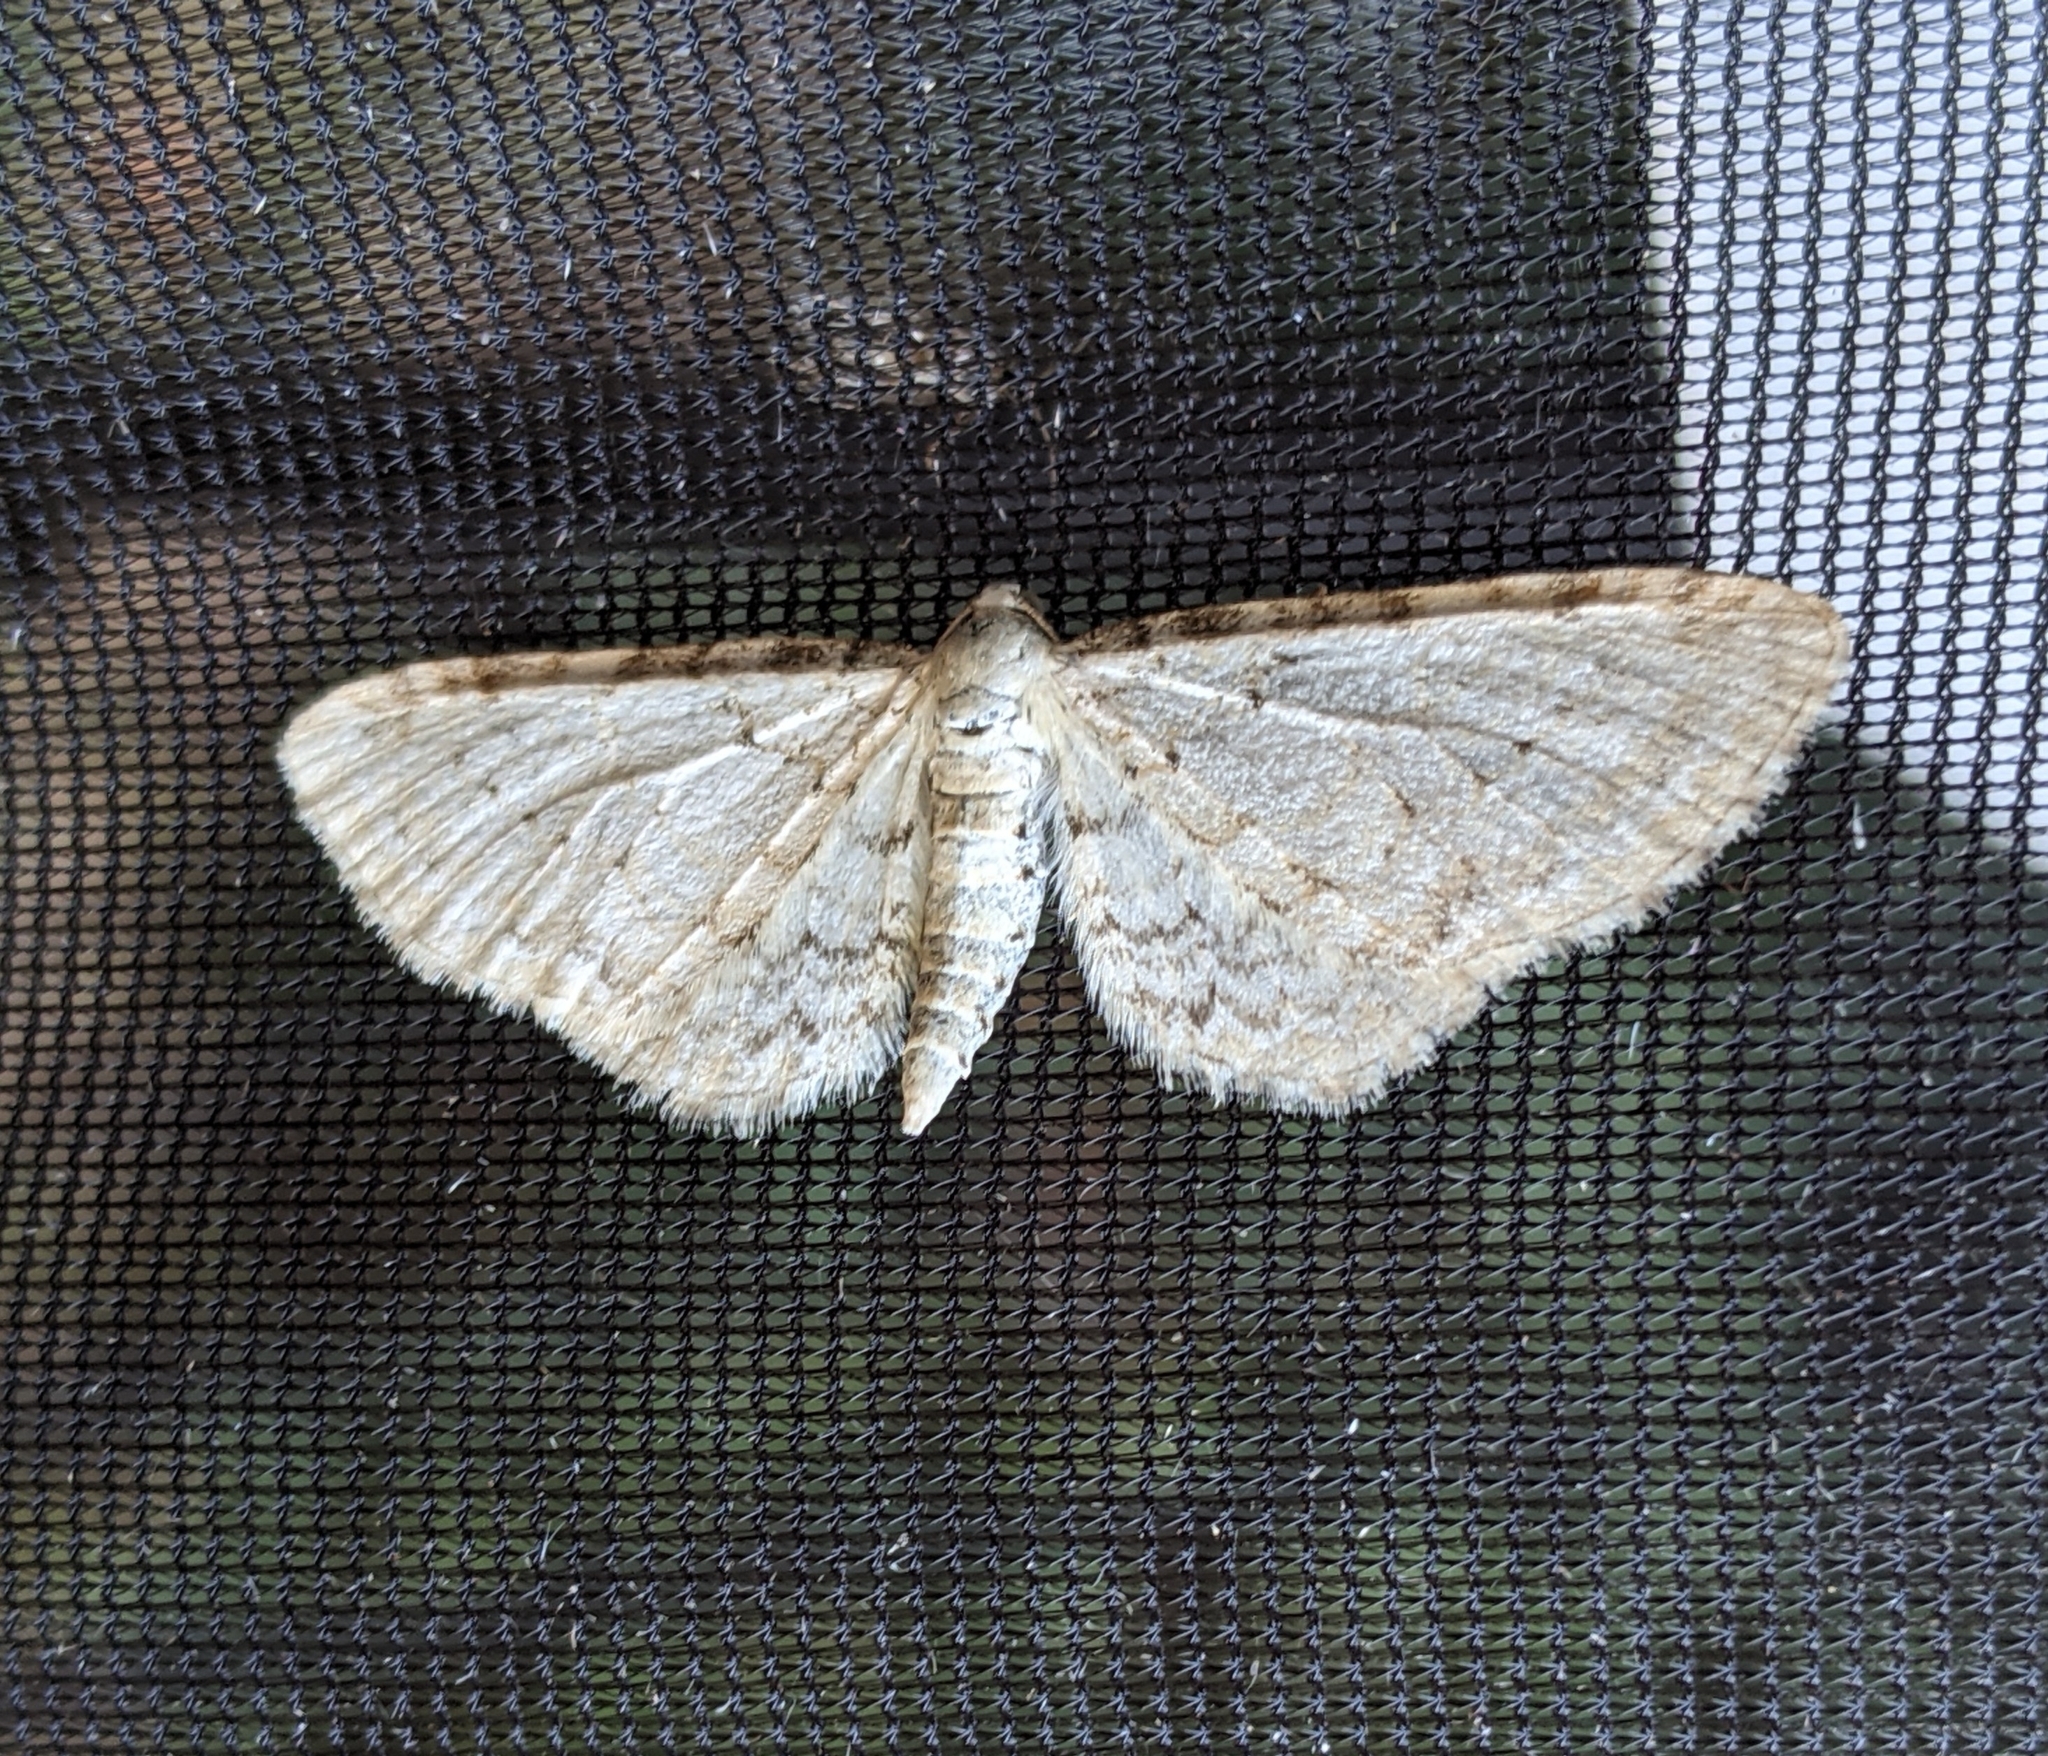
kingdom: Animalia
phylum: Arthropoda
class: Insecta
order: Lepidoptera
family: Geometridae
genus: Eupithecia
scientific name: Eupithecia cretaceata
